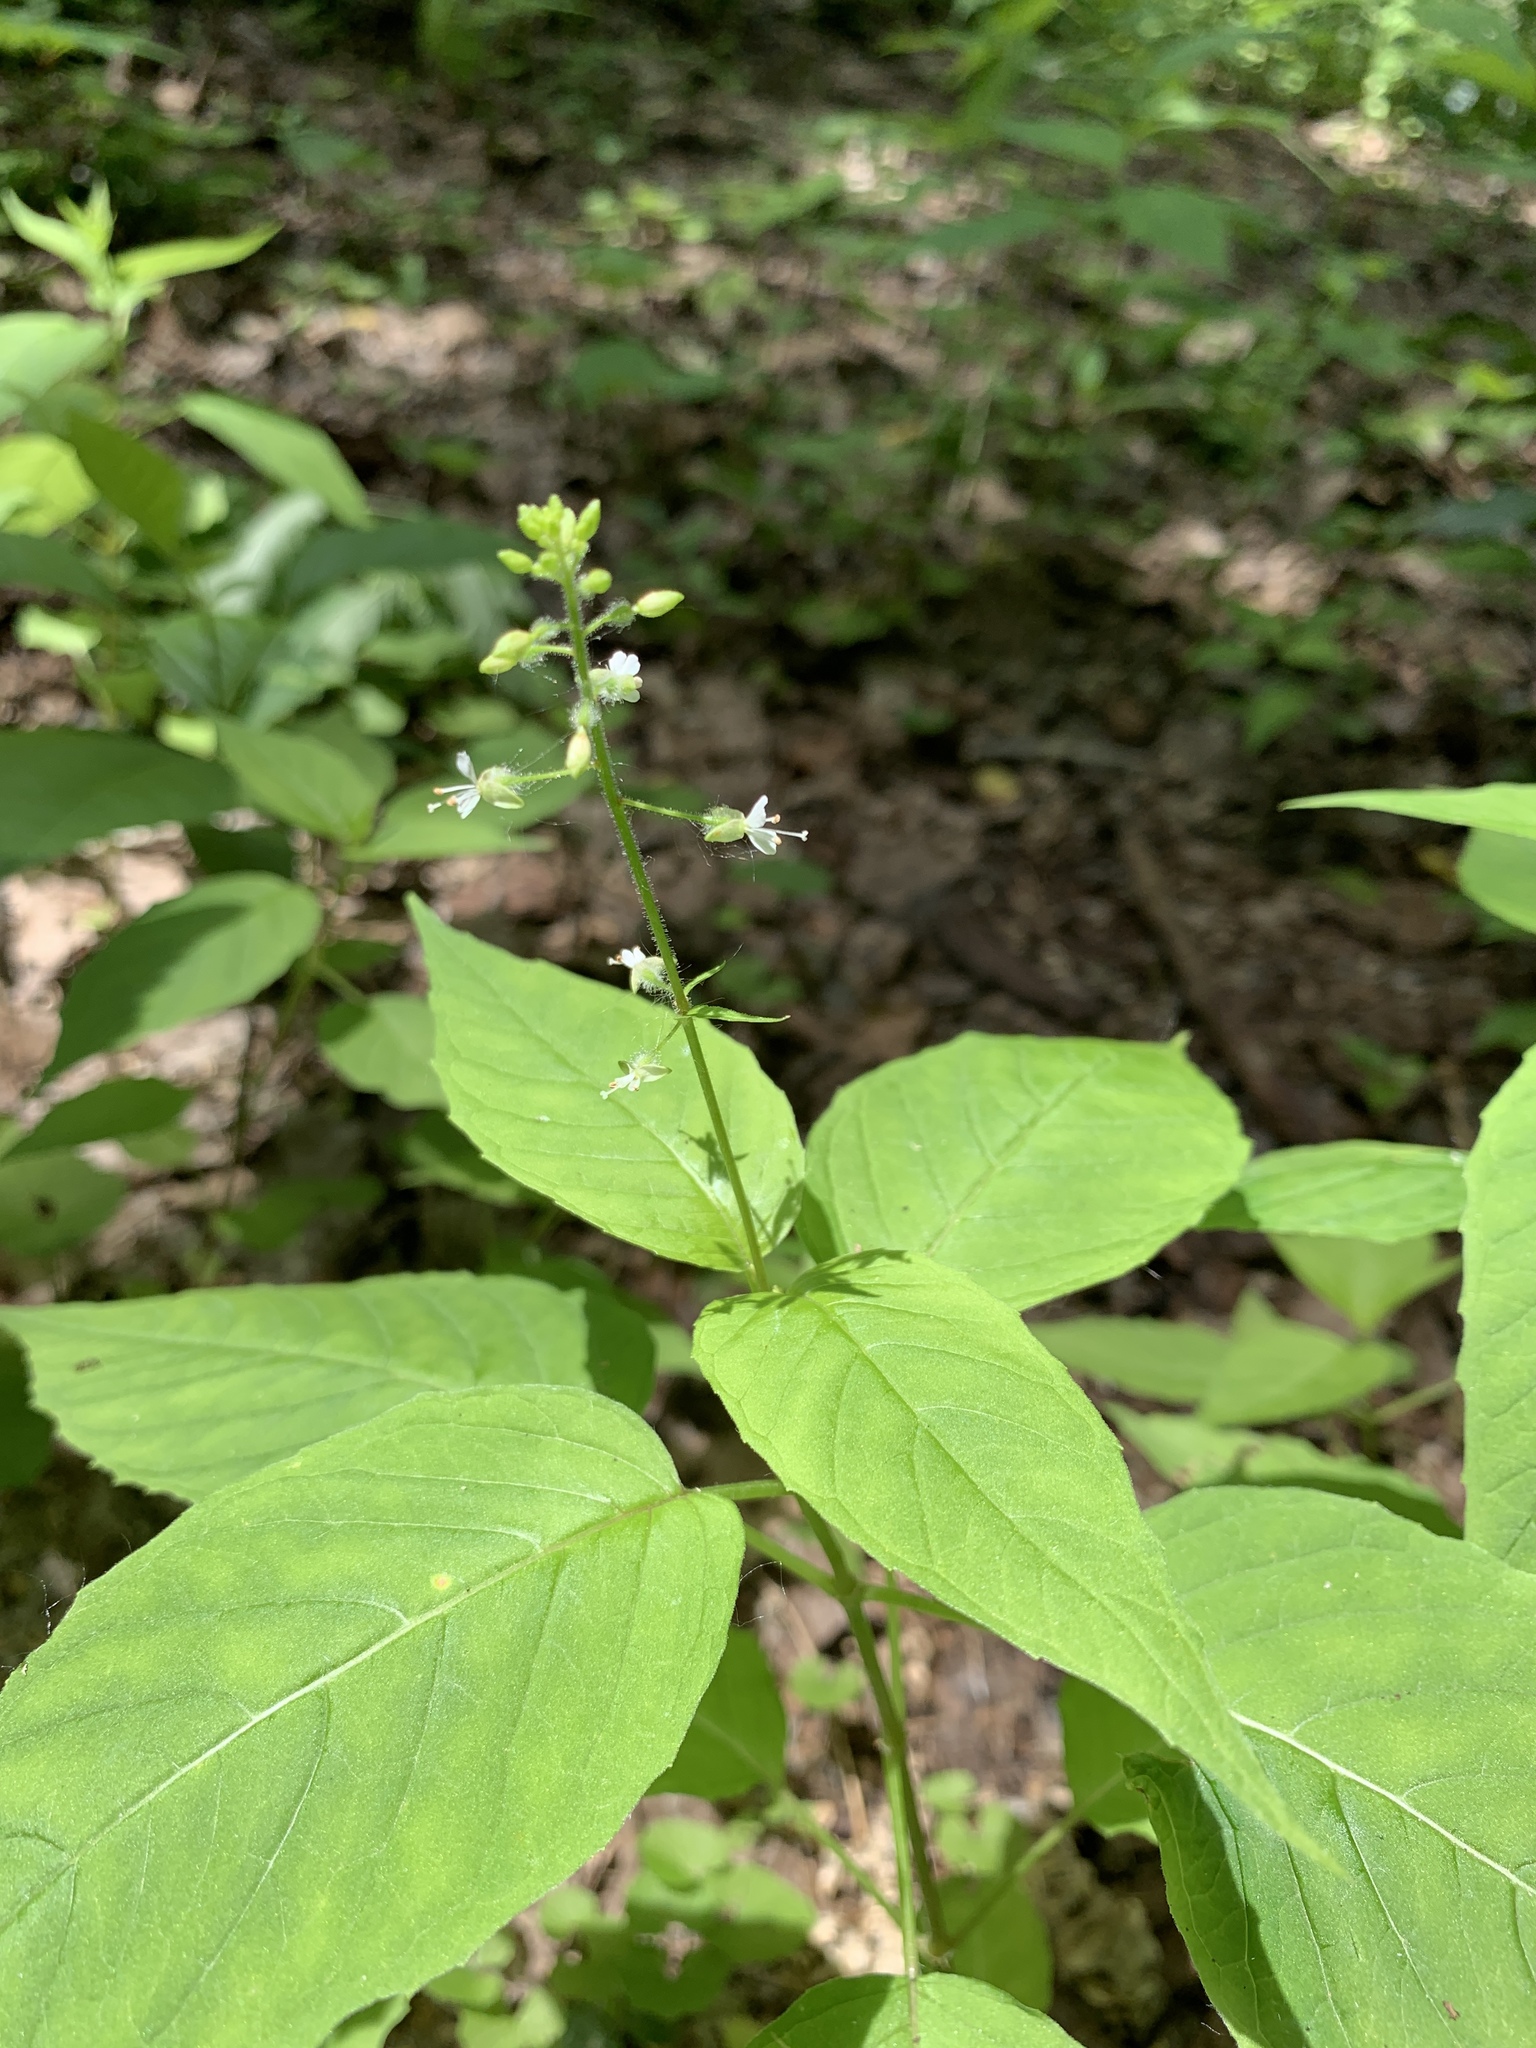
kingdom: Plantae
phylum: Tracheophyta
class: Magnoliopsida
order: Myrtales
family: Onagraceae
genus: Circaea
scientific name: Circaea canadensis
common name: Broad-leaved enchanter's nightshade
